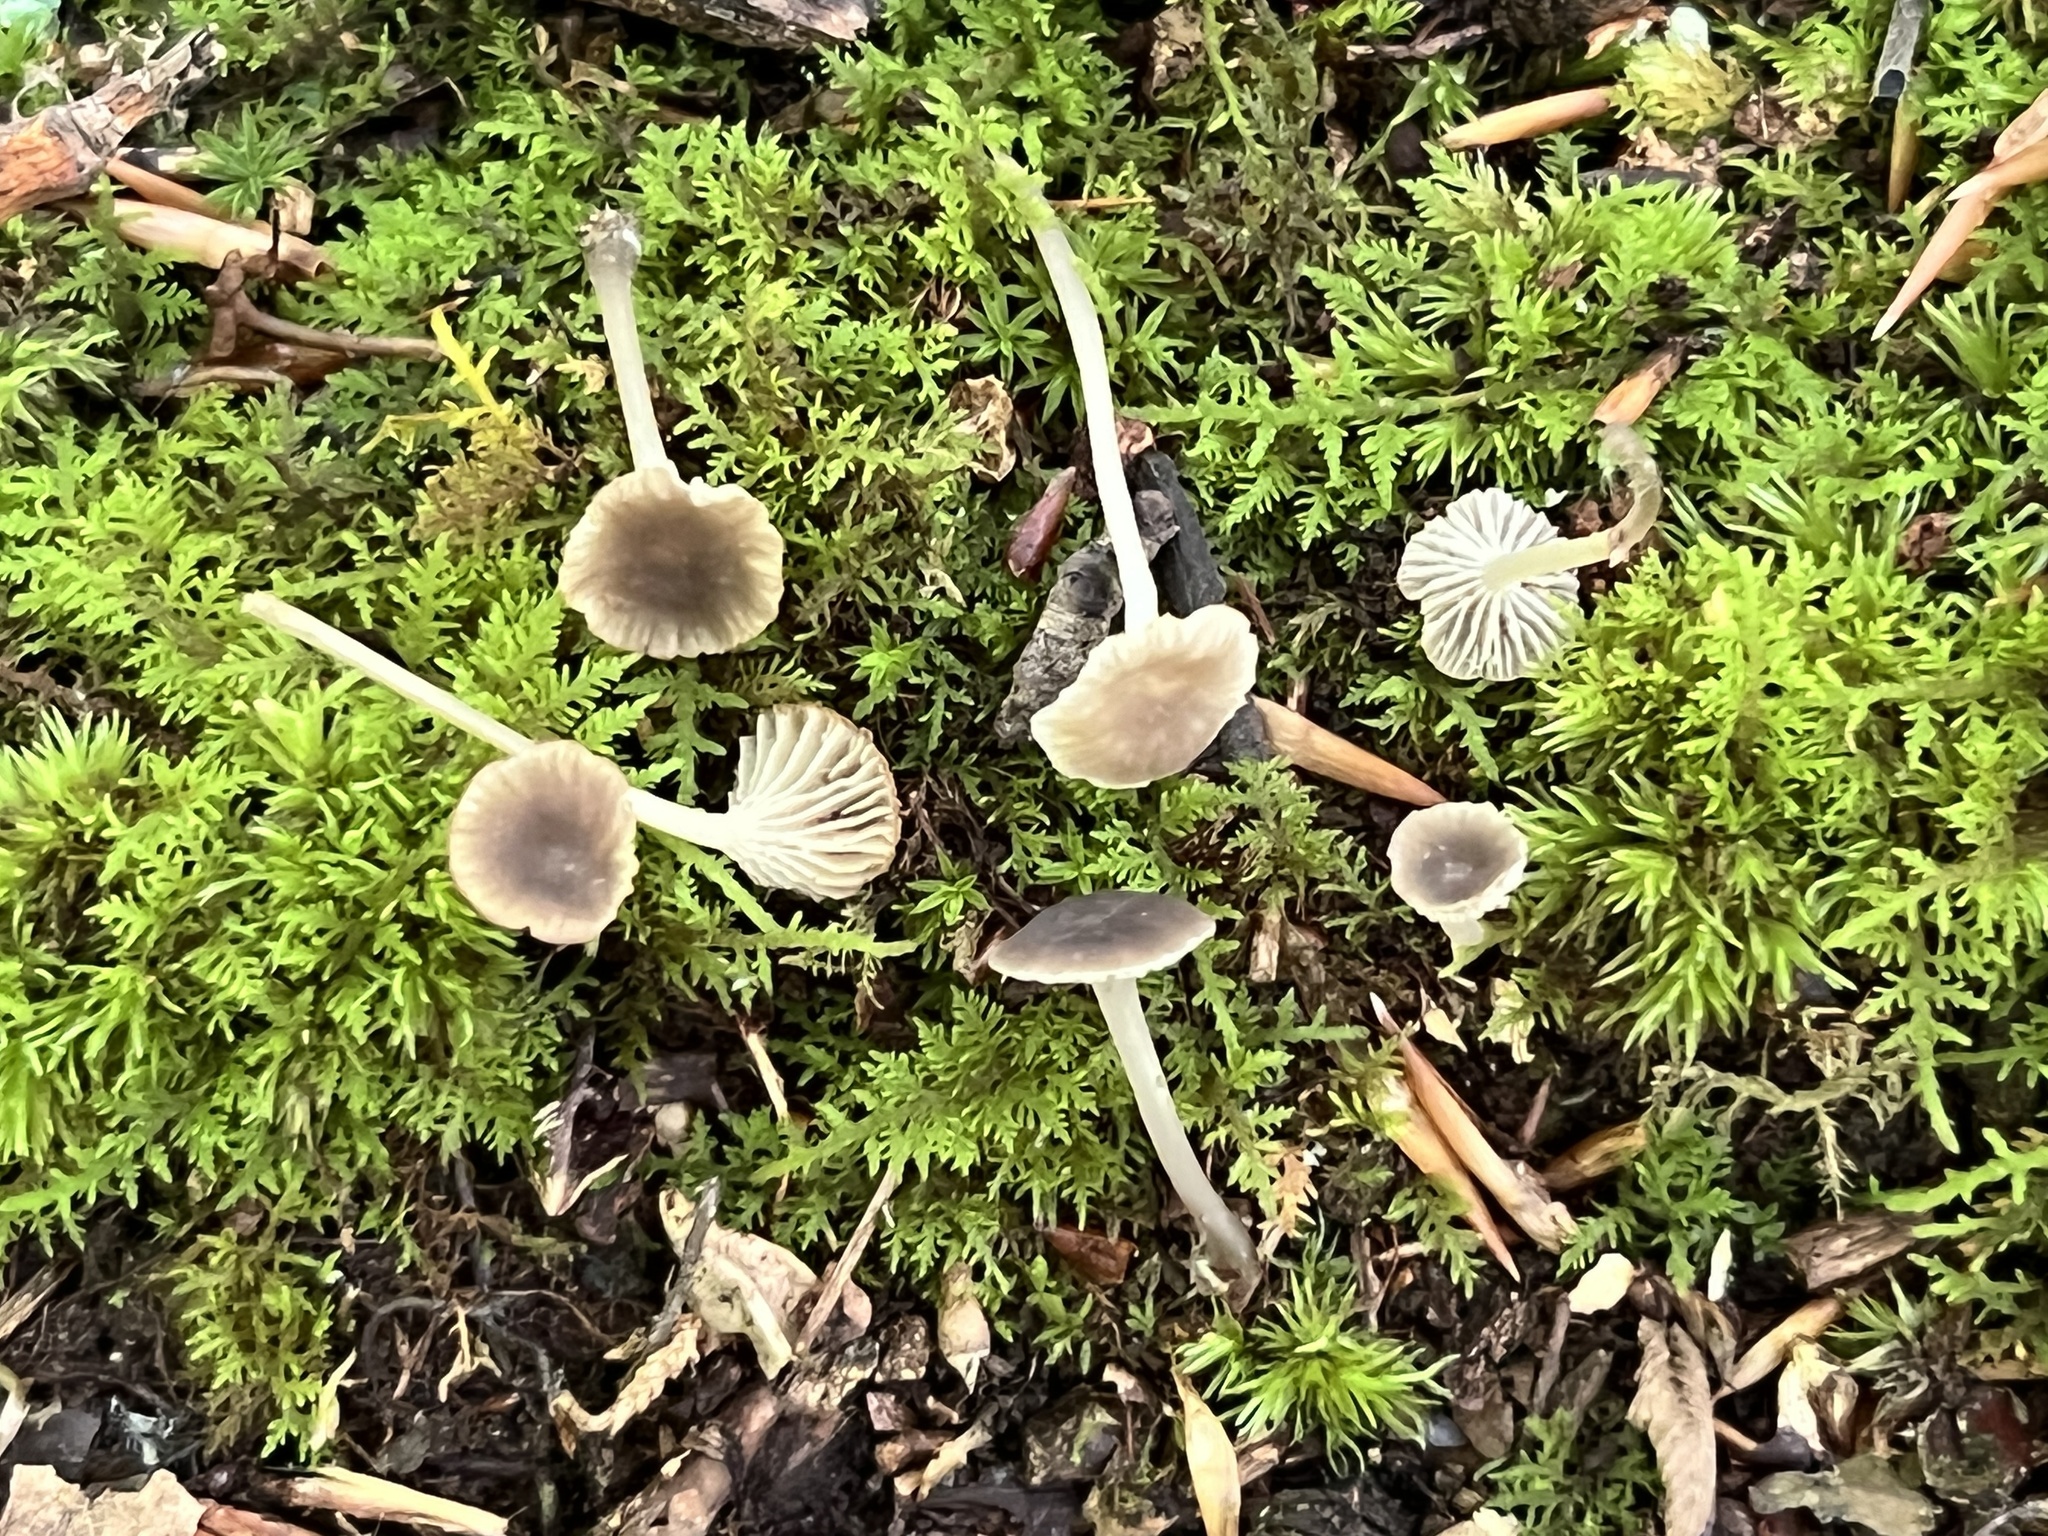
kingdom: Fungi
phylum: Basidiomycota
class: Agaricomycetes
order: Agaricales
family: Mycenaceae
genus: Hydropus
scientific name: Hydropus praedecurrens
